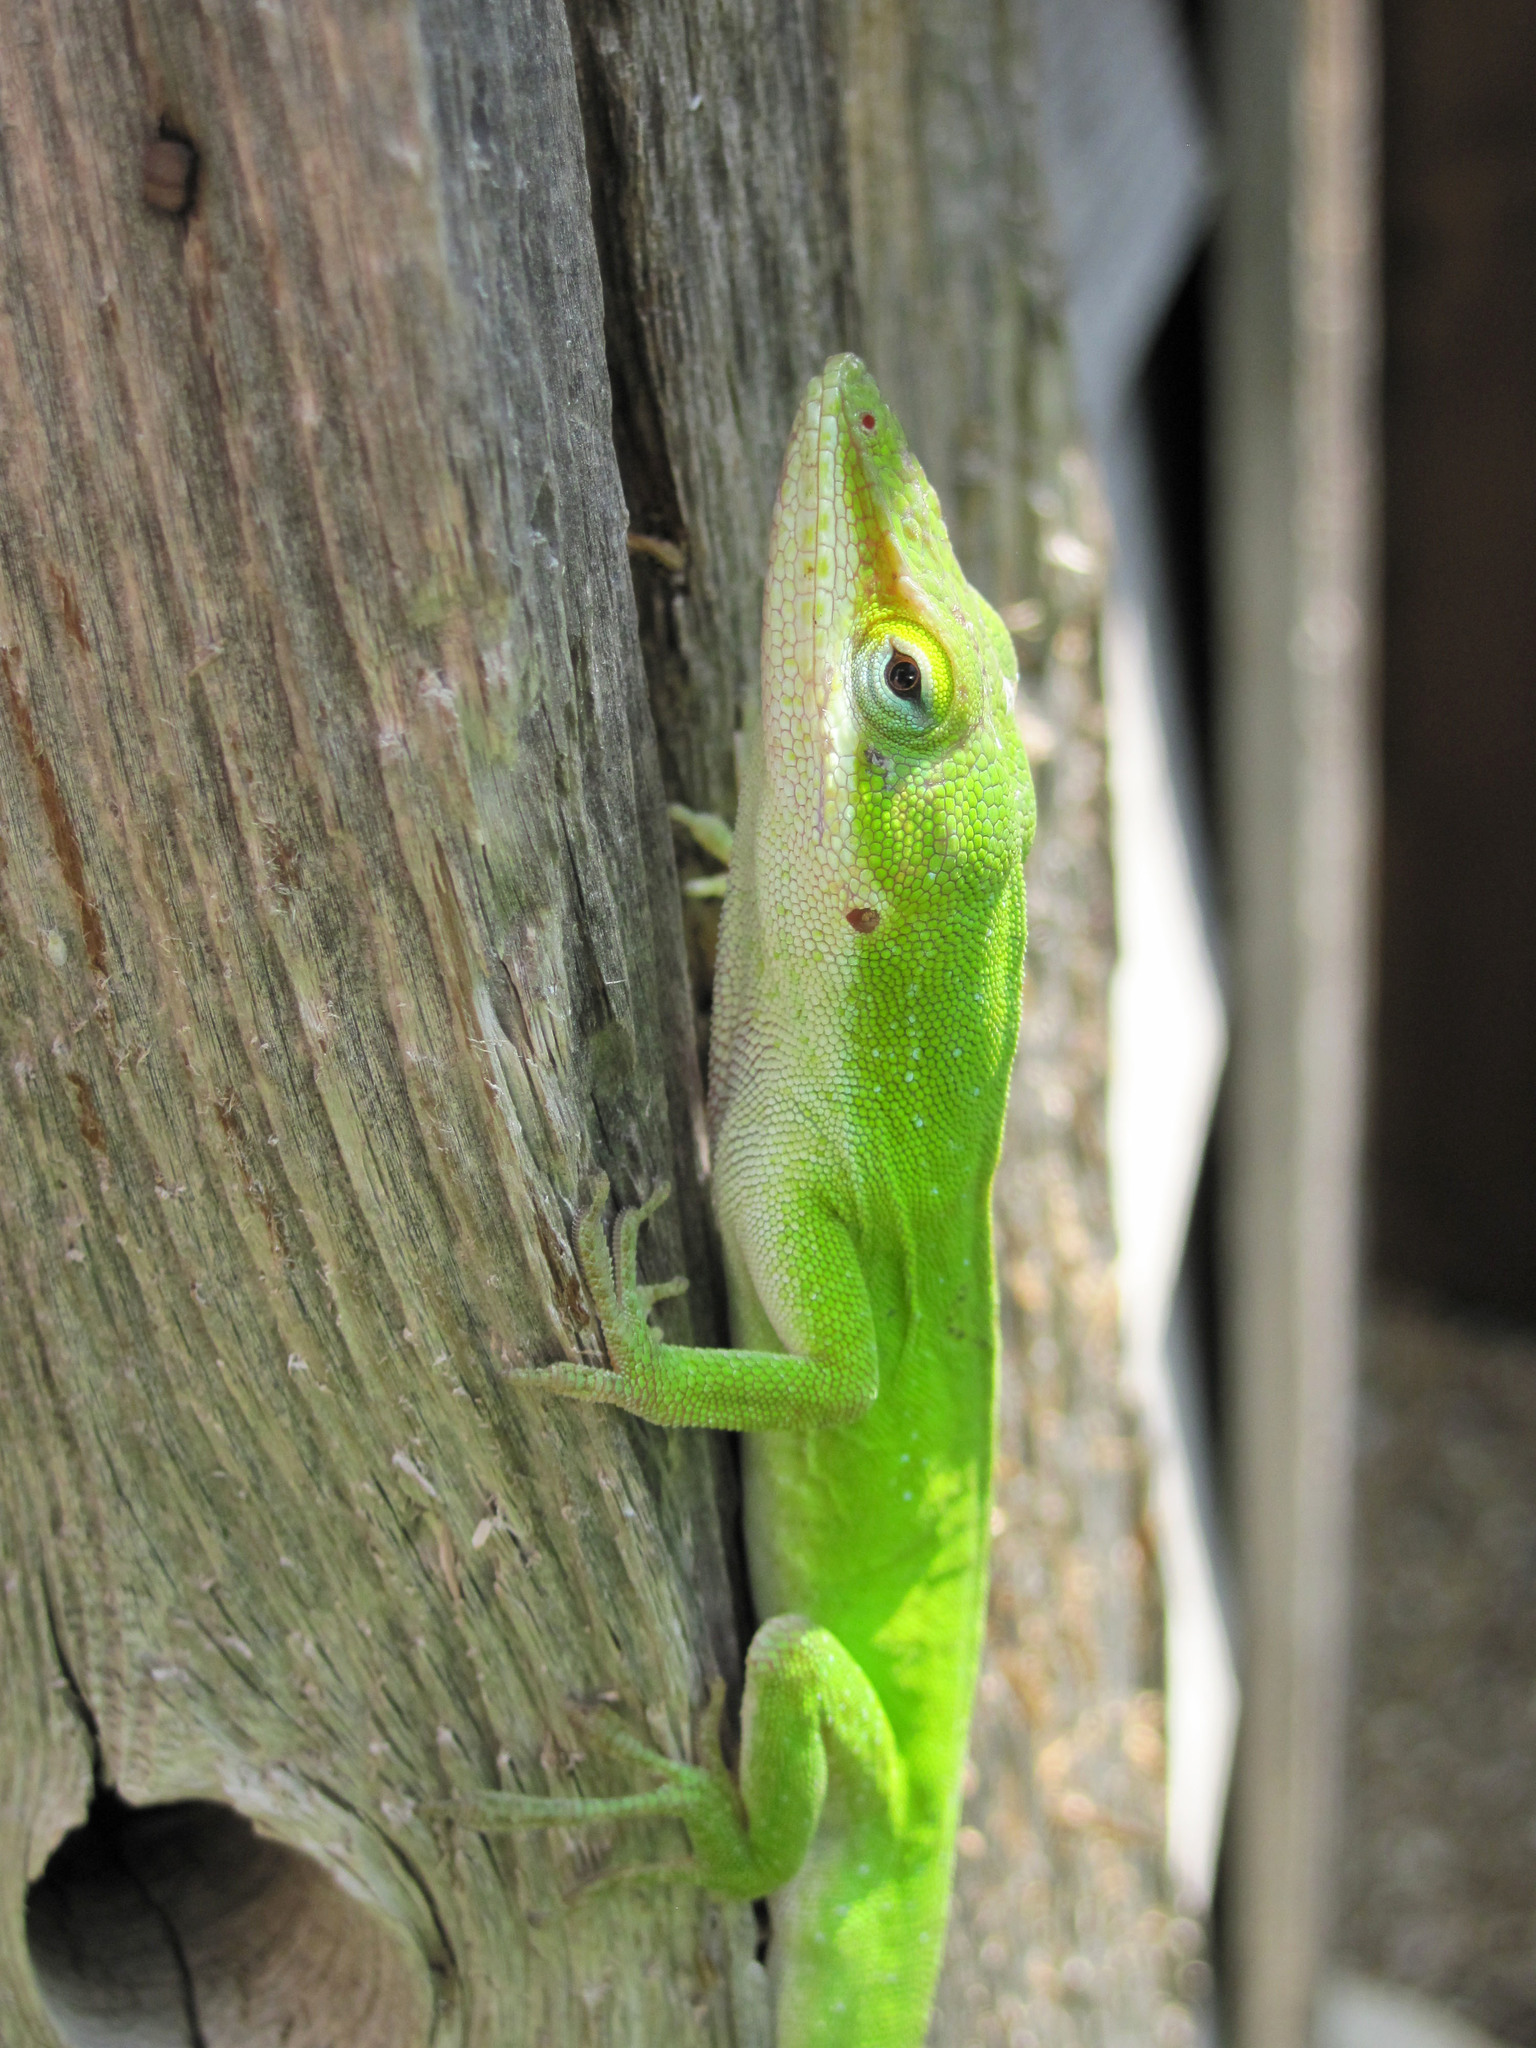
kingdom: Animalia
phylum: Chordata
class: Squamata
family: Dactyloidae
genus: Anolis
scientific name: Anolis carolinensis
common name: Green anole
